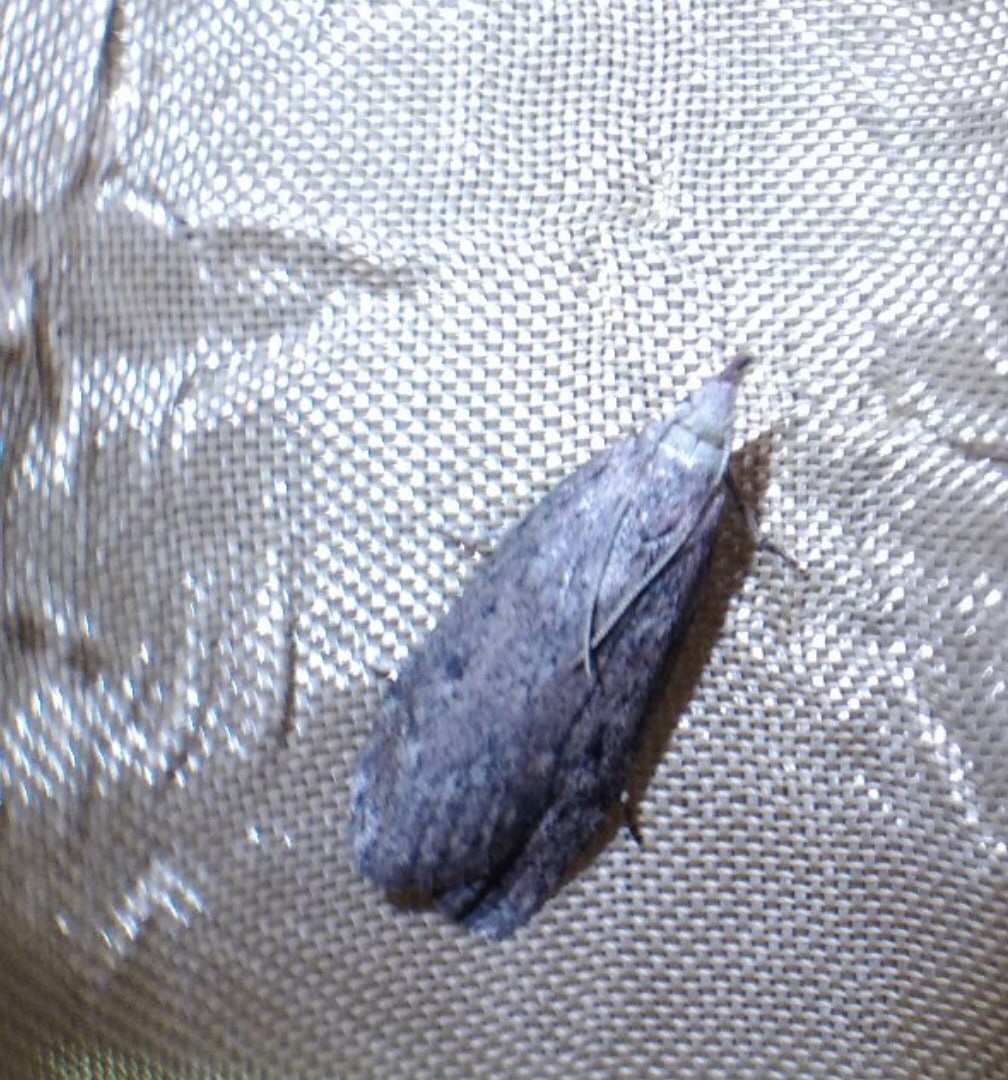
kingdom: Animalia
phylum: Arthropoda
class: Insecta
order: Lepidoptera
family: Pyralidae
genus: Aphomia
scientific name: Aphomia sociella
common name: Bee moth
